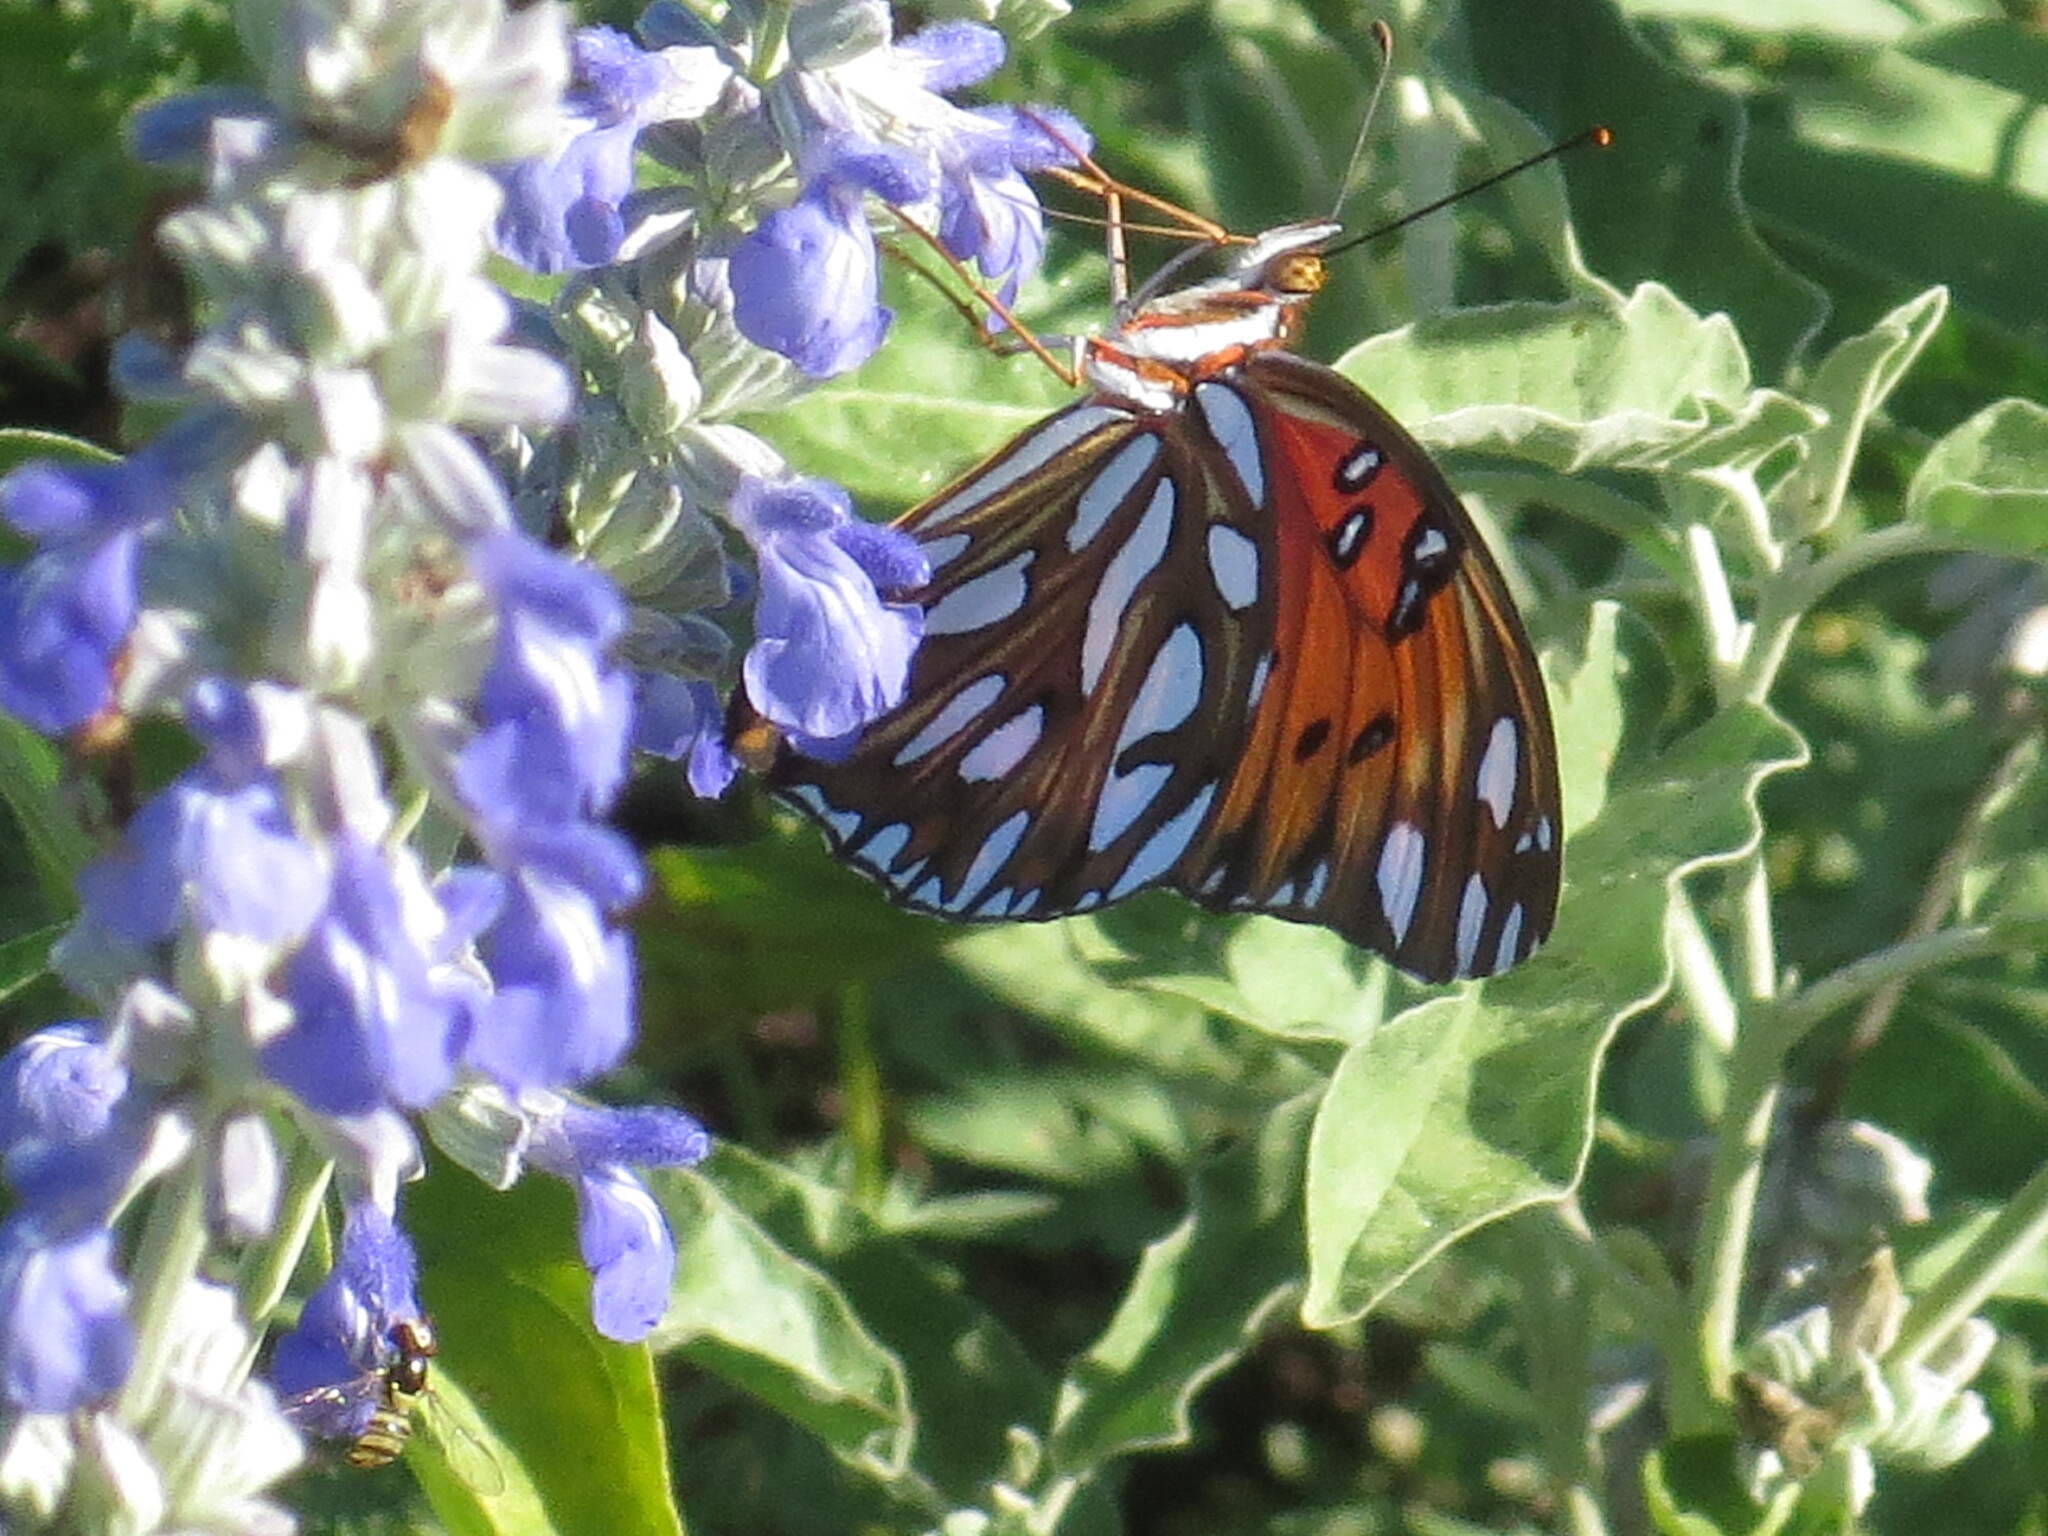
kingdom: Animalia
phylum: Arthropoda
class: Insecta
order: Lepidoptera
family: Nymphalidae
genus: Dione
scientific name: Dione vanillae
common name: Gulf fritillary
